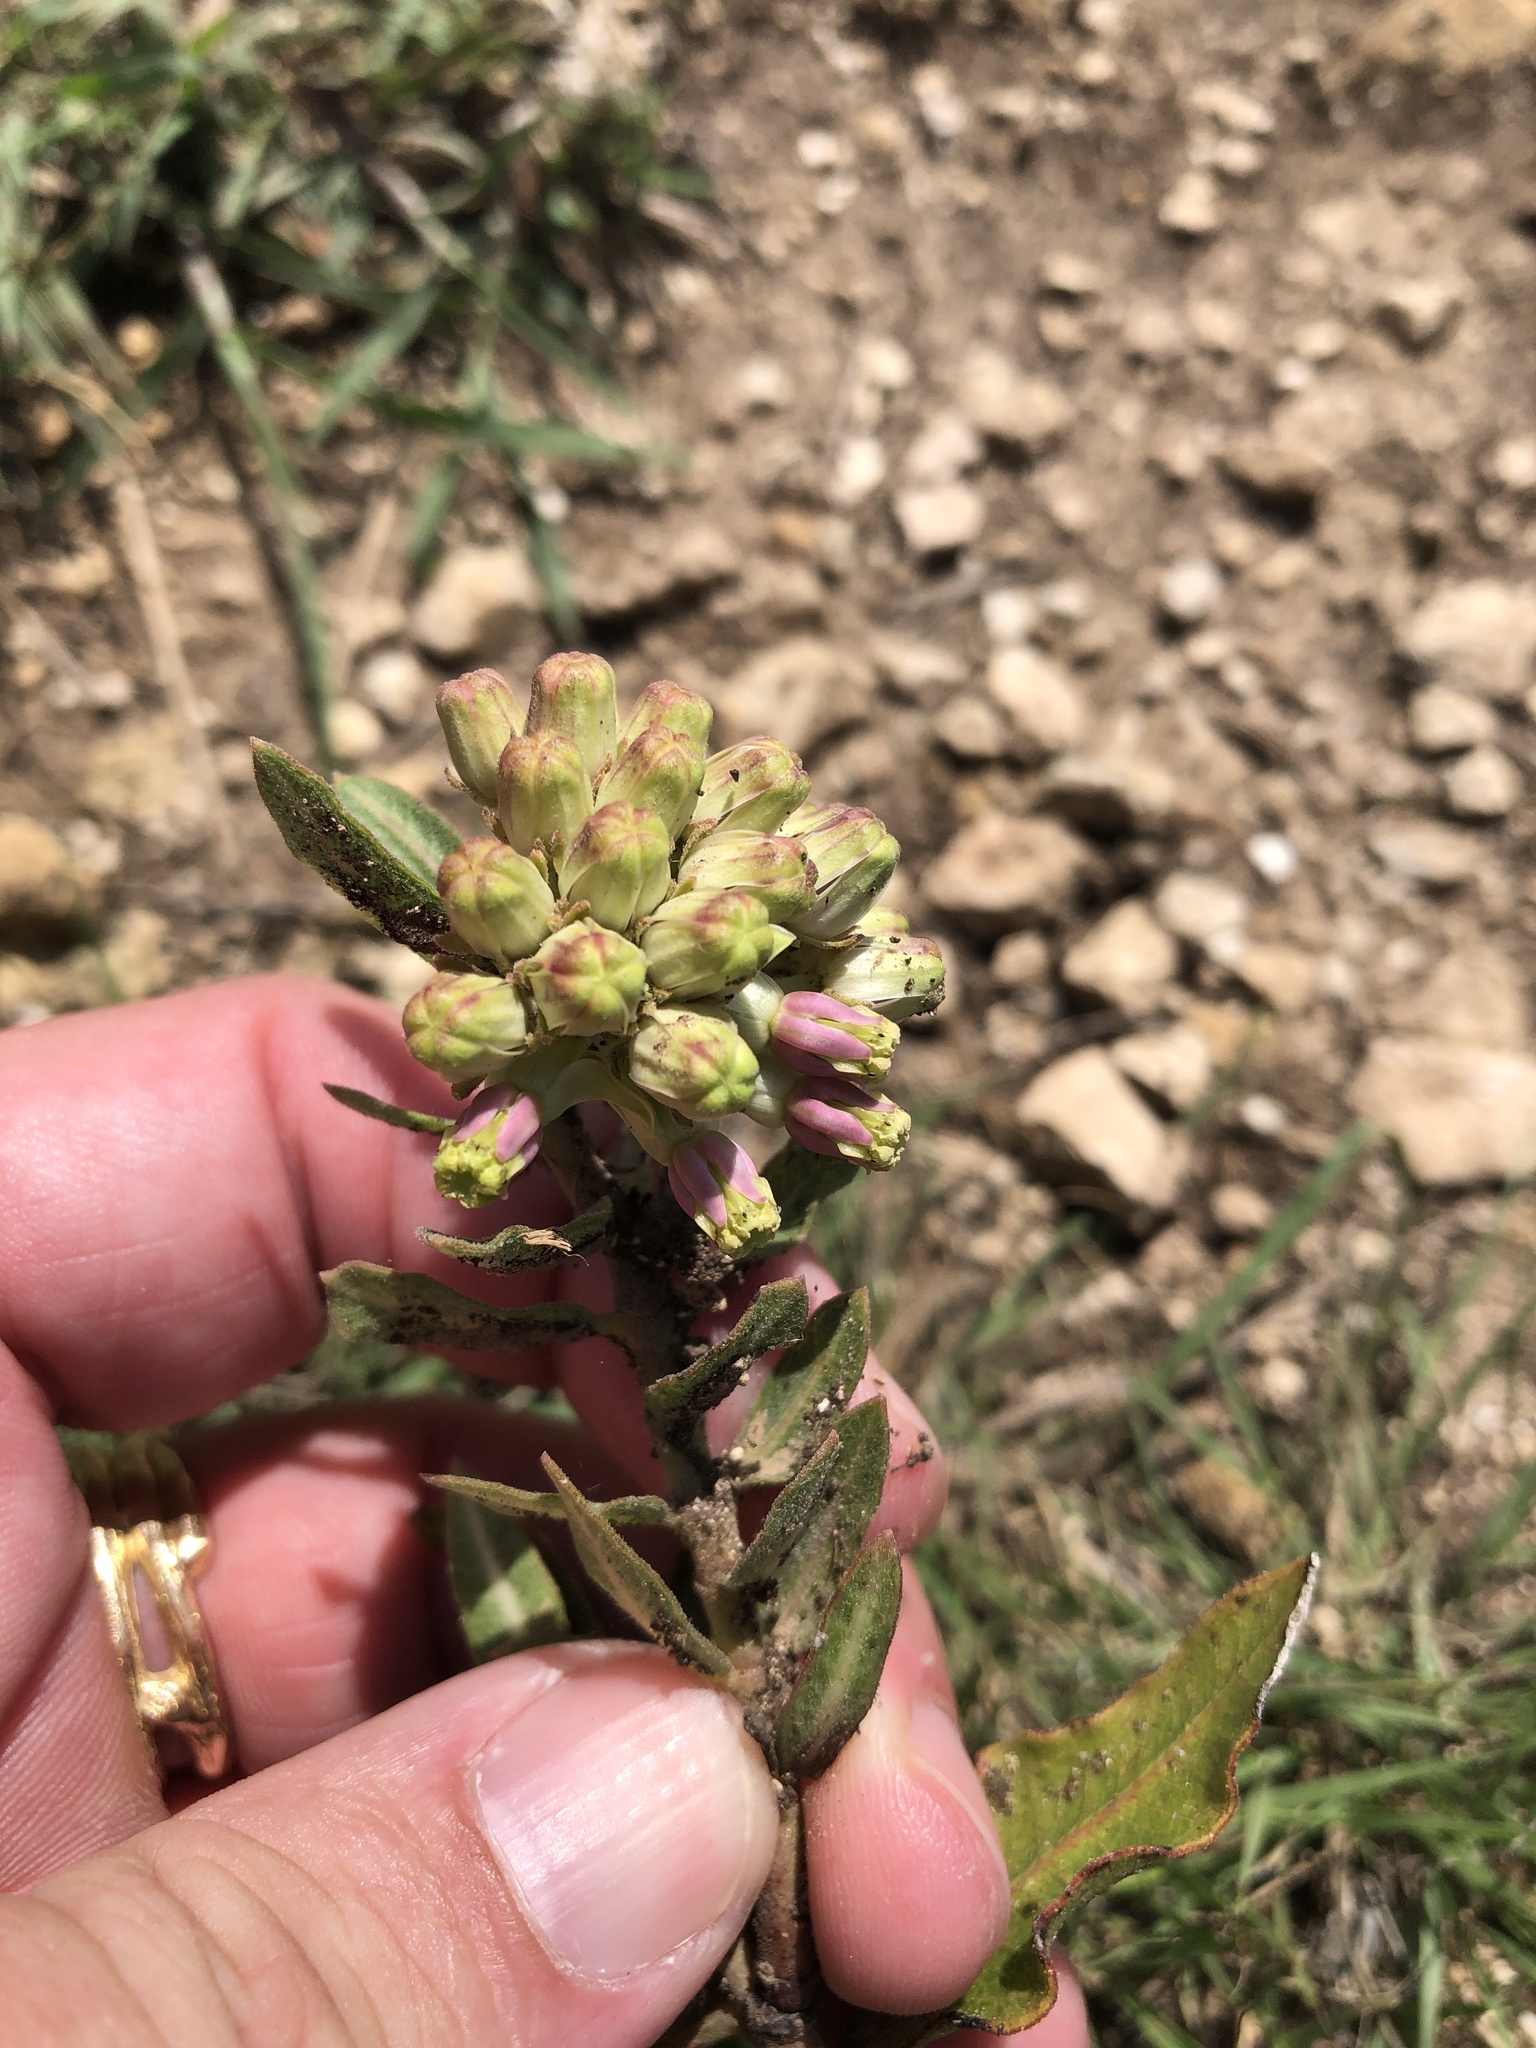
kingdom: Plantae
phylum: Tracheophyta
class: Magnoliopsida
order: Gentianales
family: Apocynaceae
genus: Asclepias
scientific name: Asclepias viridiflora
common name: Green comet milkweed
